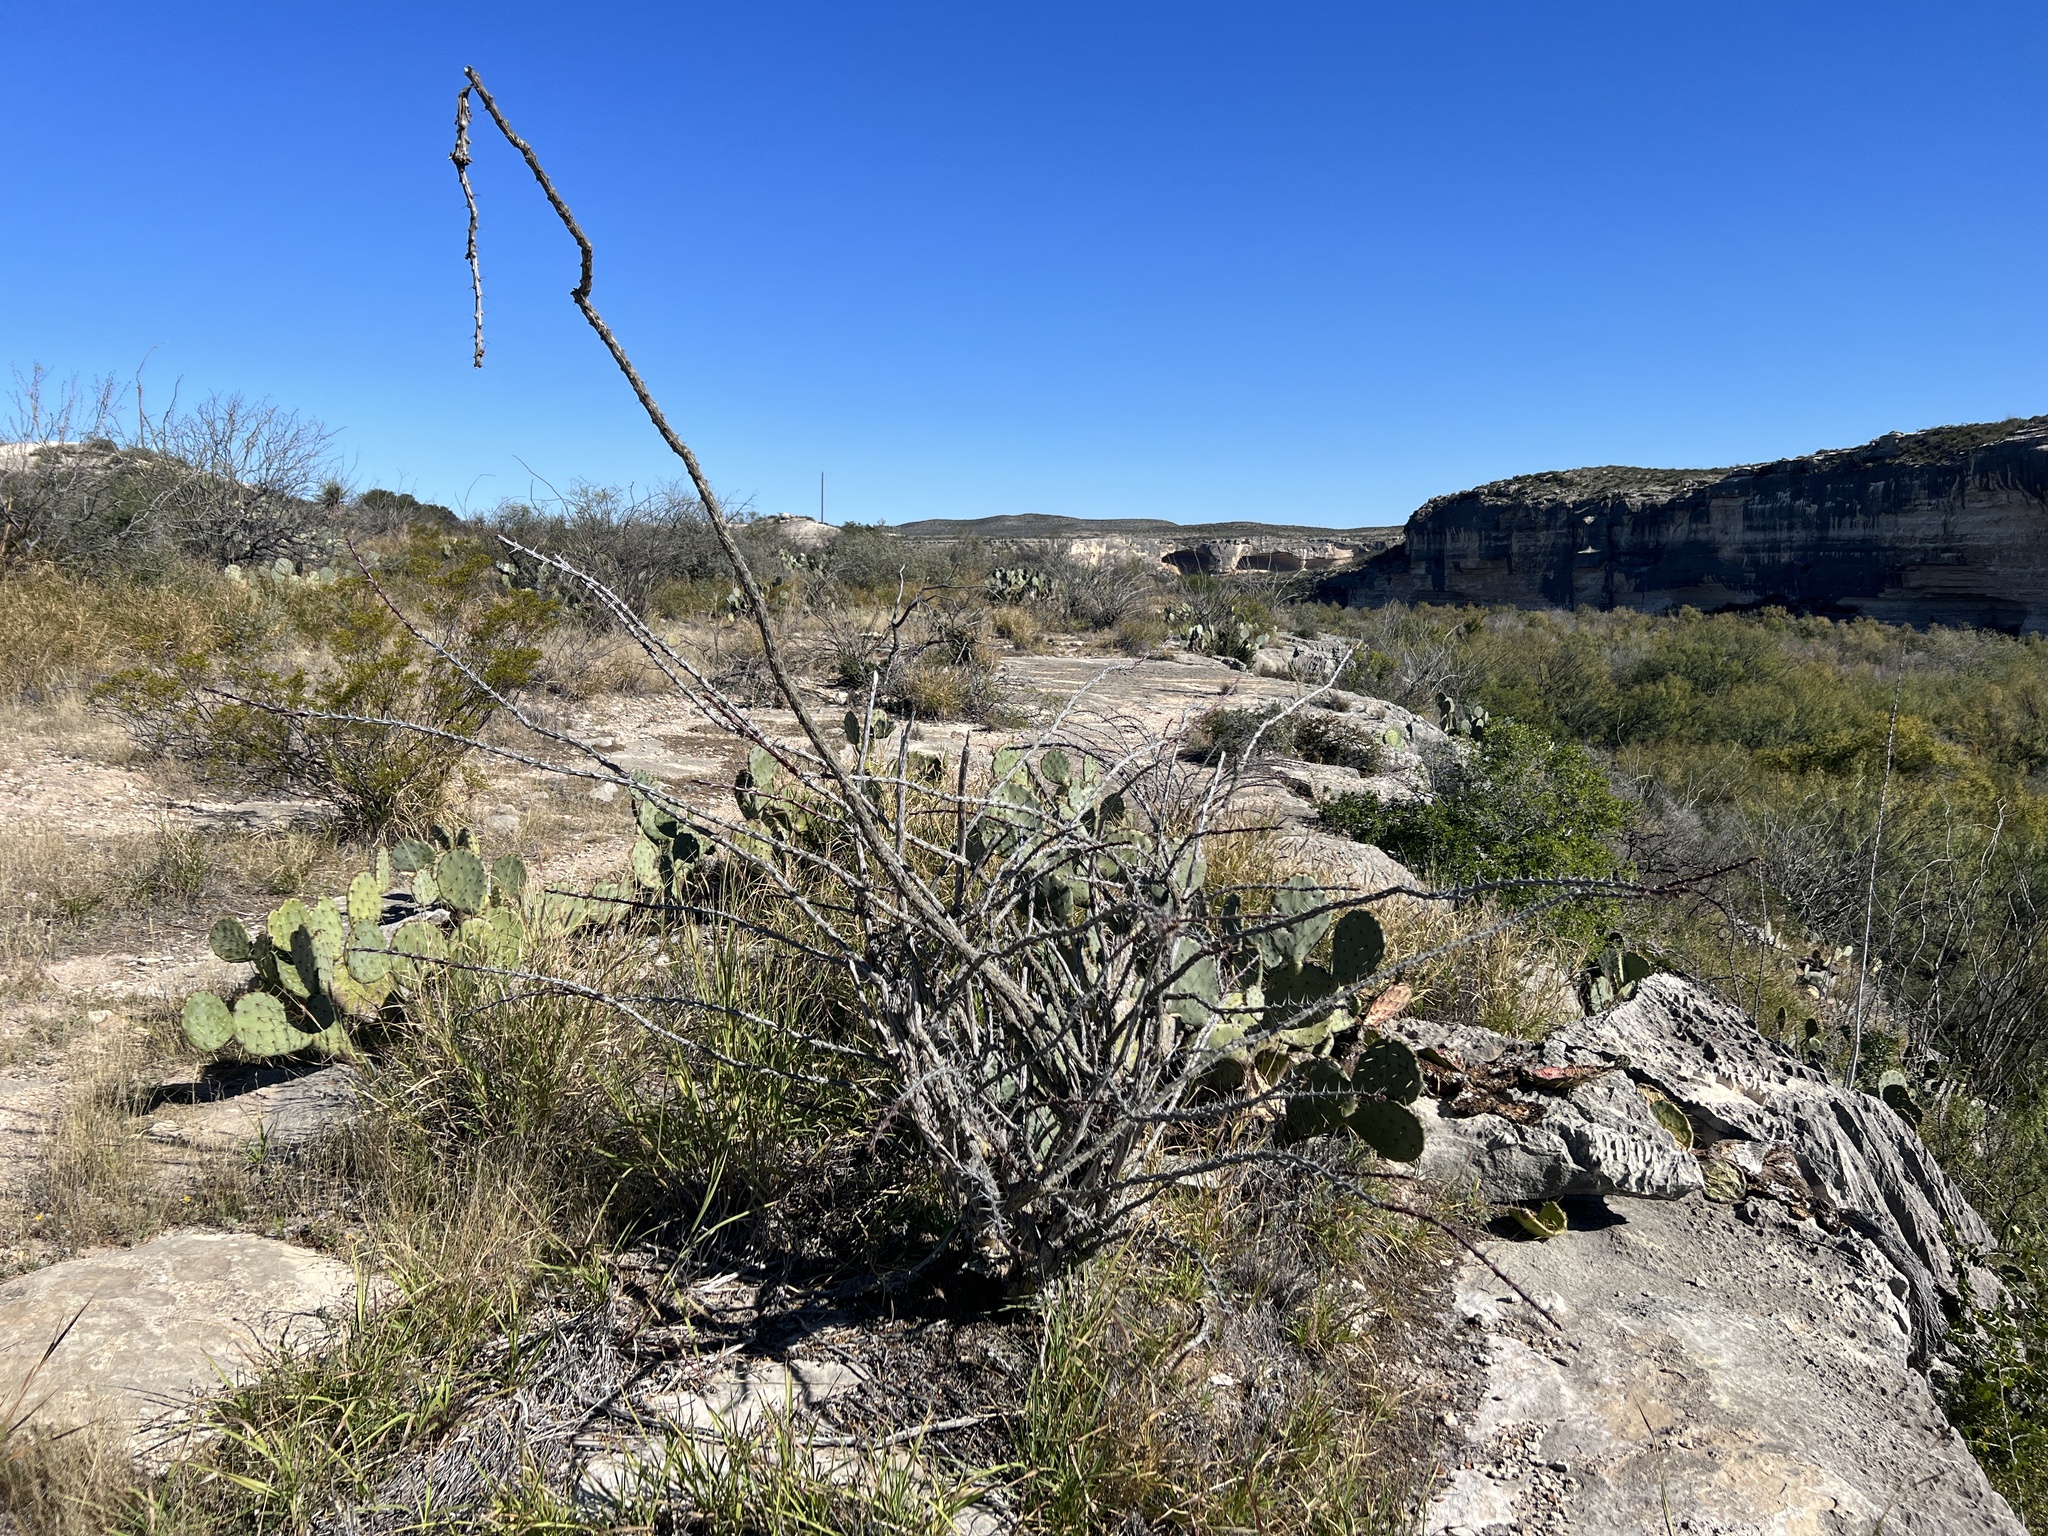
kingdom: Plantae
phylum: Tracheophyta
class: Magnoliopsida
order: Ericales
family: Fouquieriaceae
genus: Fouquieria
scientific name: Fouquieria splendens
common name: Vine-cactus
